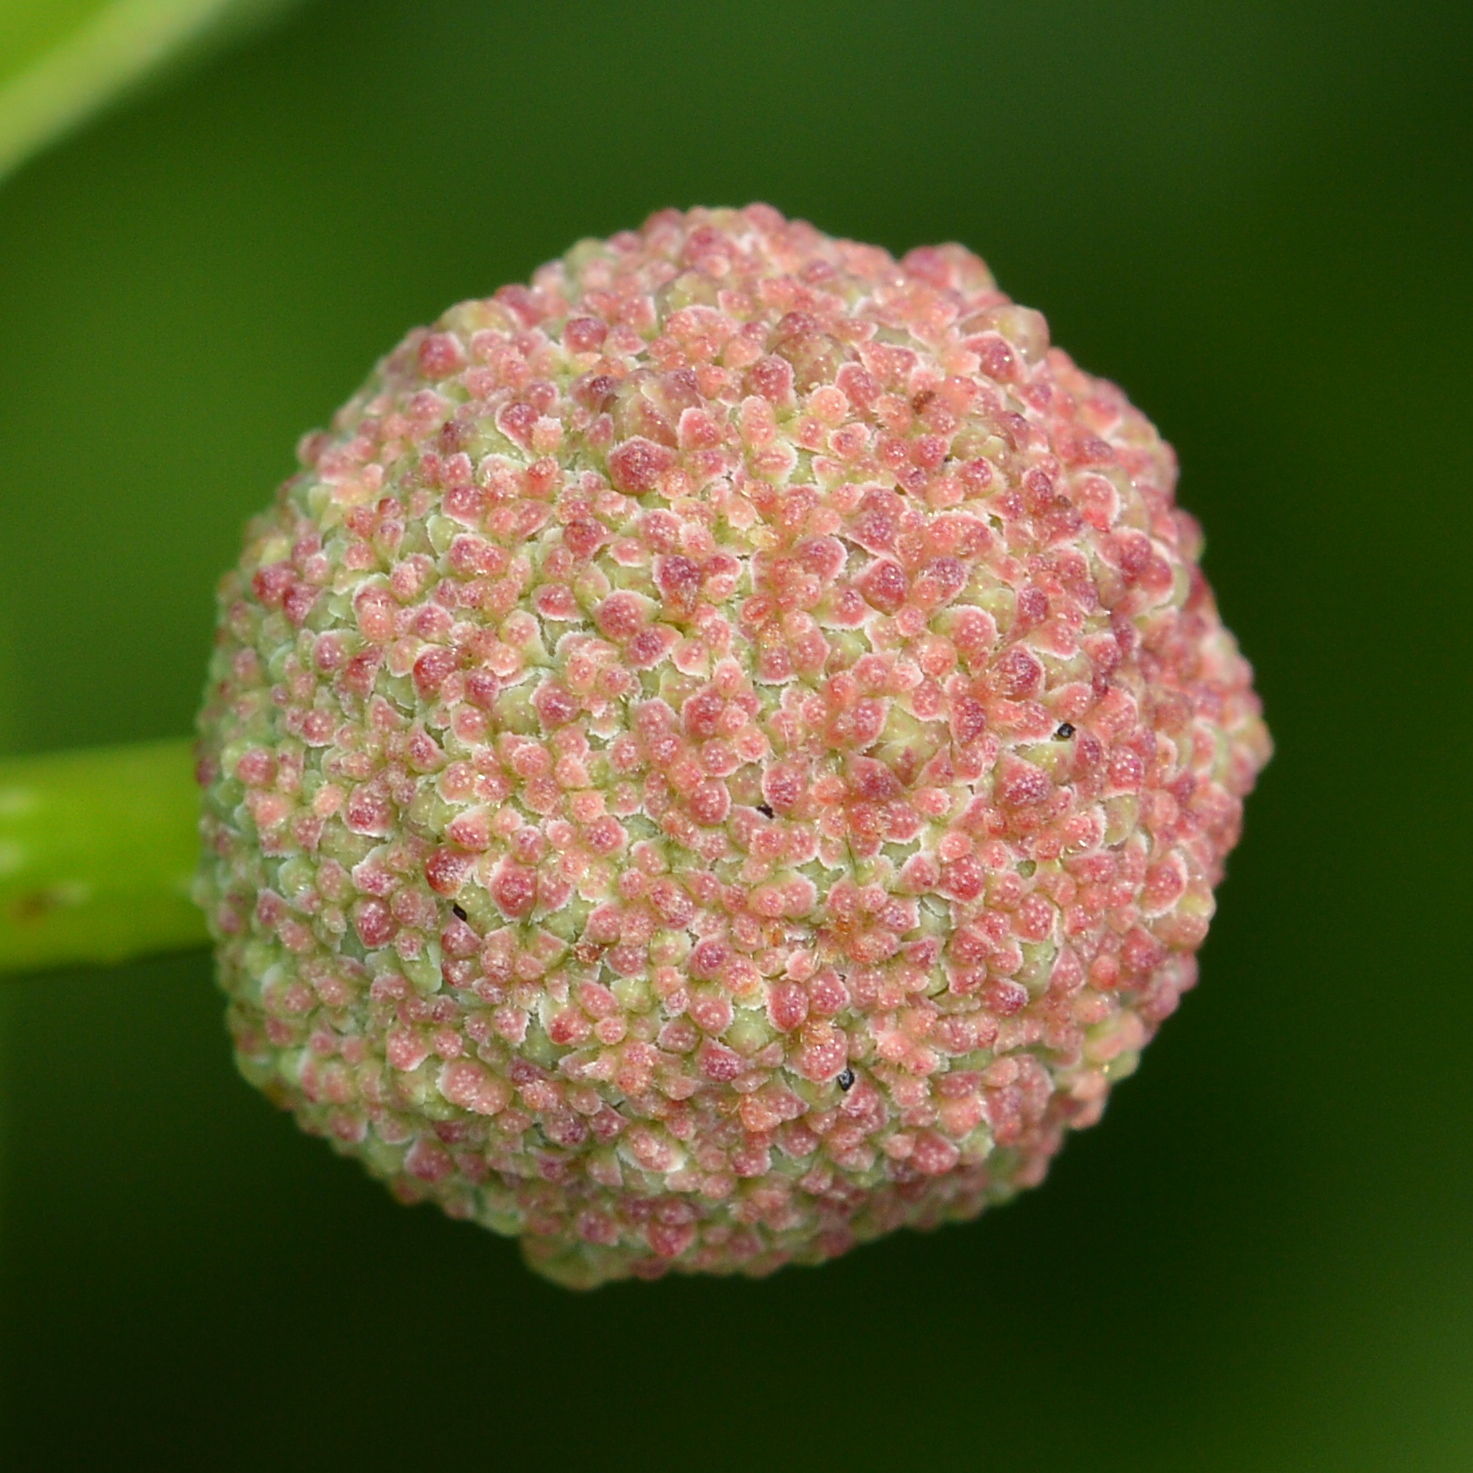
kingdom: Plantae
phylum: Tracheophyta
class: Magnoliopsida
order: Gentianales
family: Rubiaceae
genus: Cephalanthus
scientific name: Cephalanthus occidentalis
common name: Button-willow
